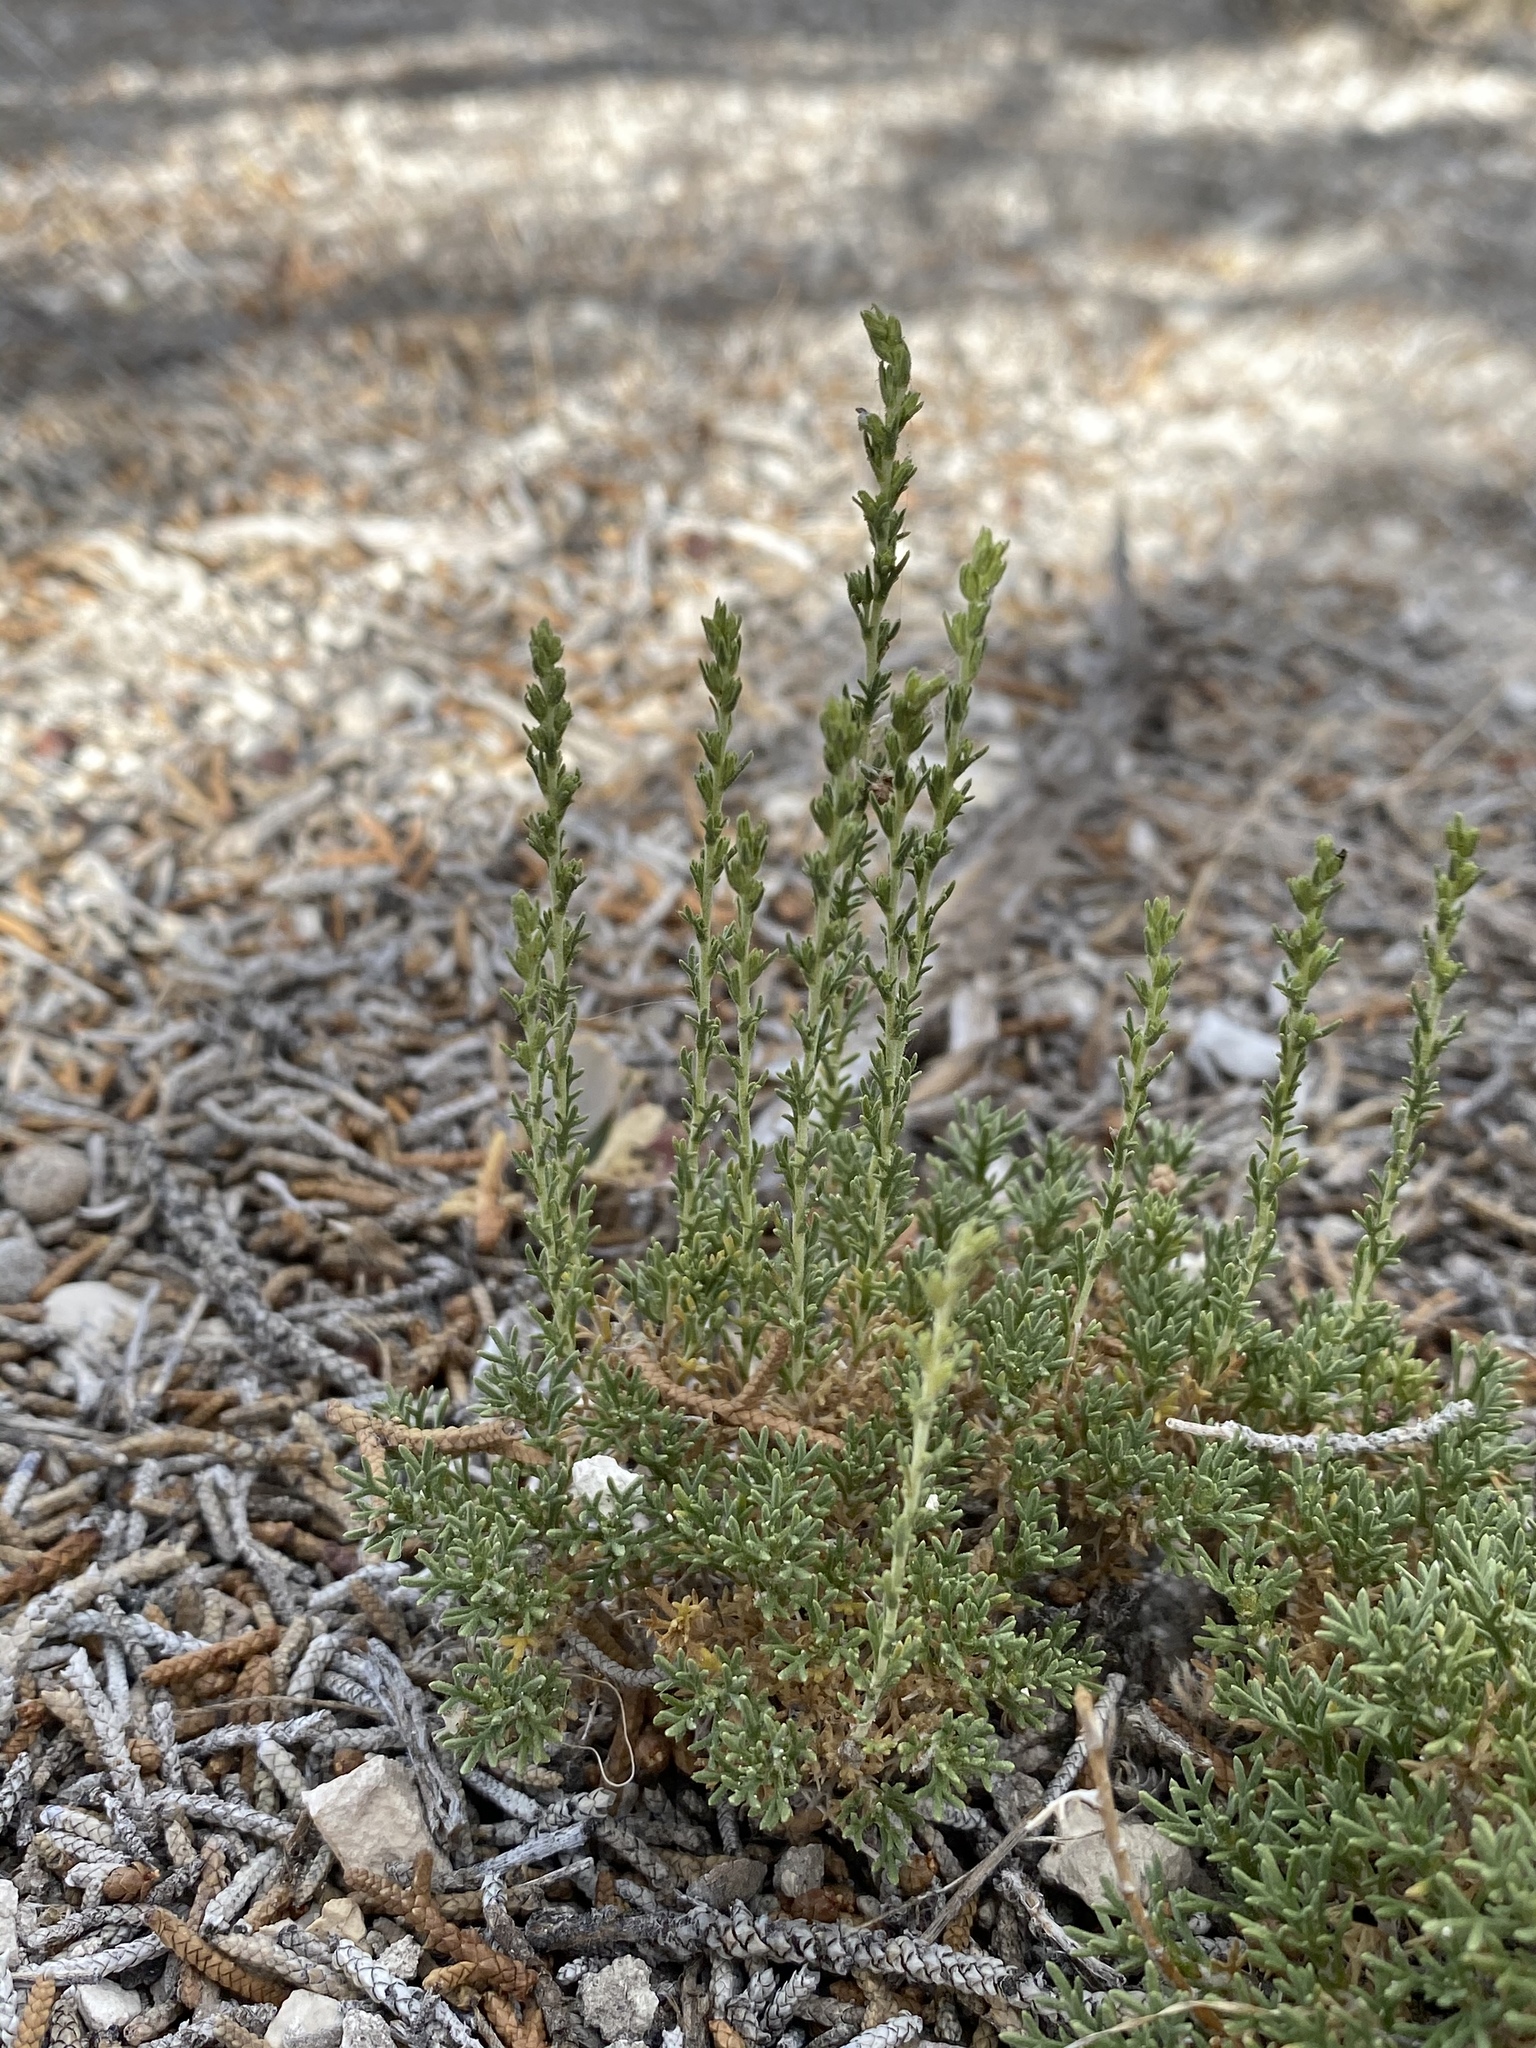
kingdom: Plantae
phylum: Tracheophyta
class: Magnoliopsida
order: Asterales
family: Asteraceae
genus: Artemisia
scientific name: Artemisia pygmaea
